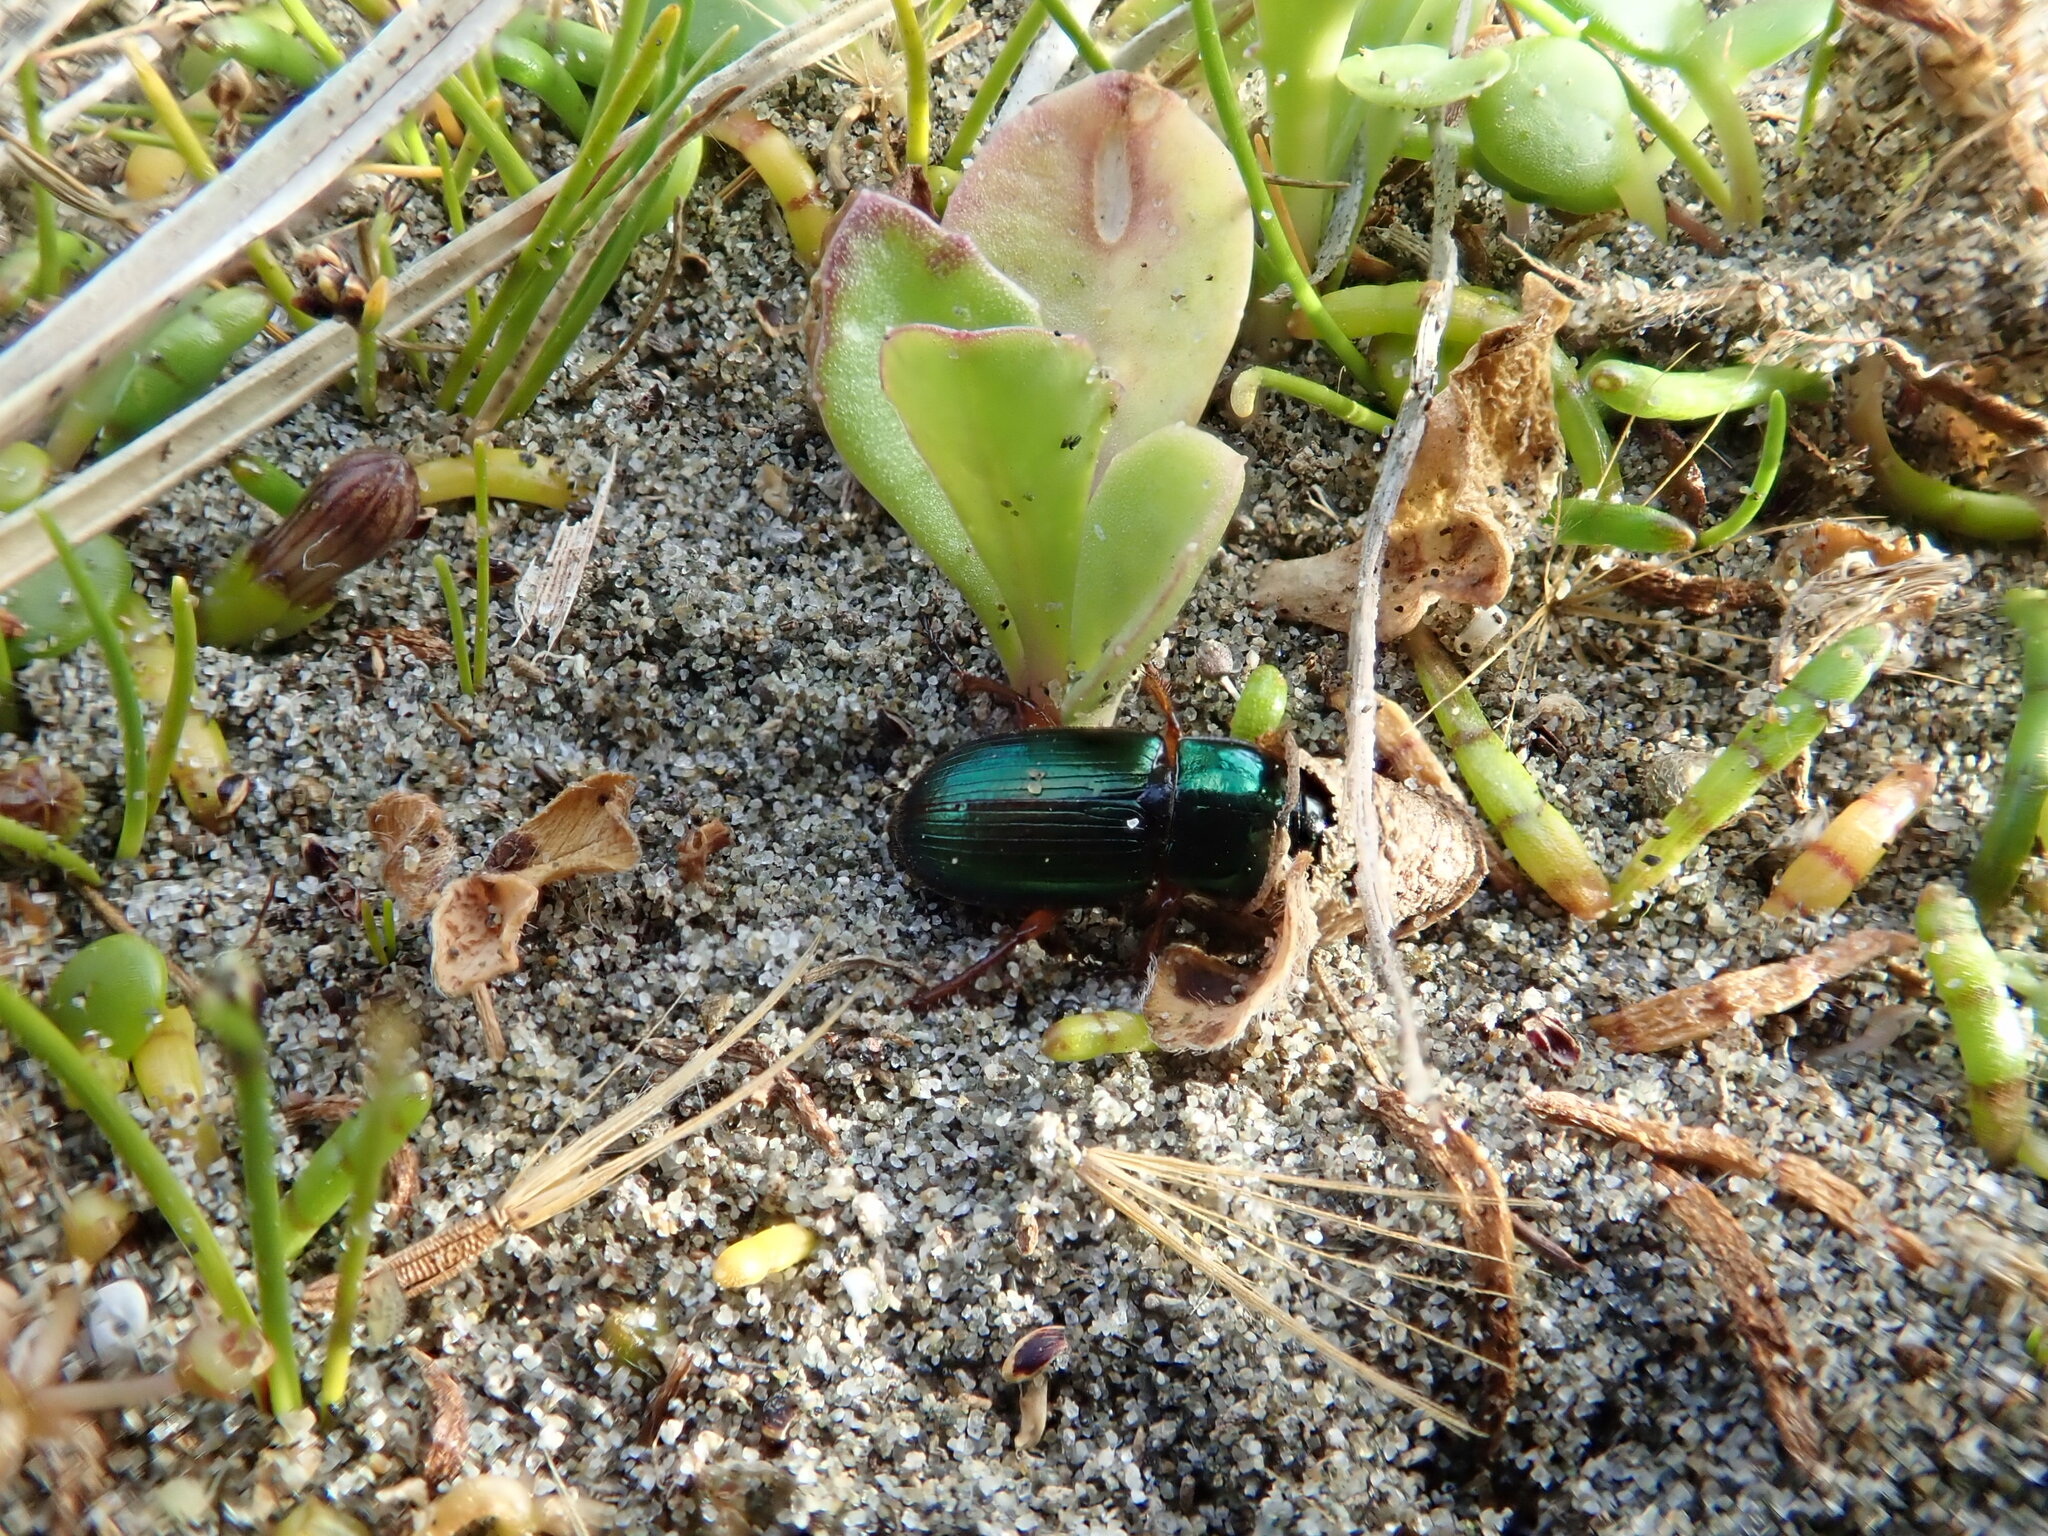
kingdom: Animalia
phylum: Arthropoda
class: Insecta
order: Coleoptera
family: Carabidae
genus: Harpalus
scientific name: Harpalus affinis
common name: Polychrome harp ground beetle
